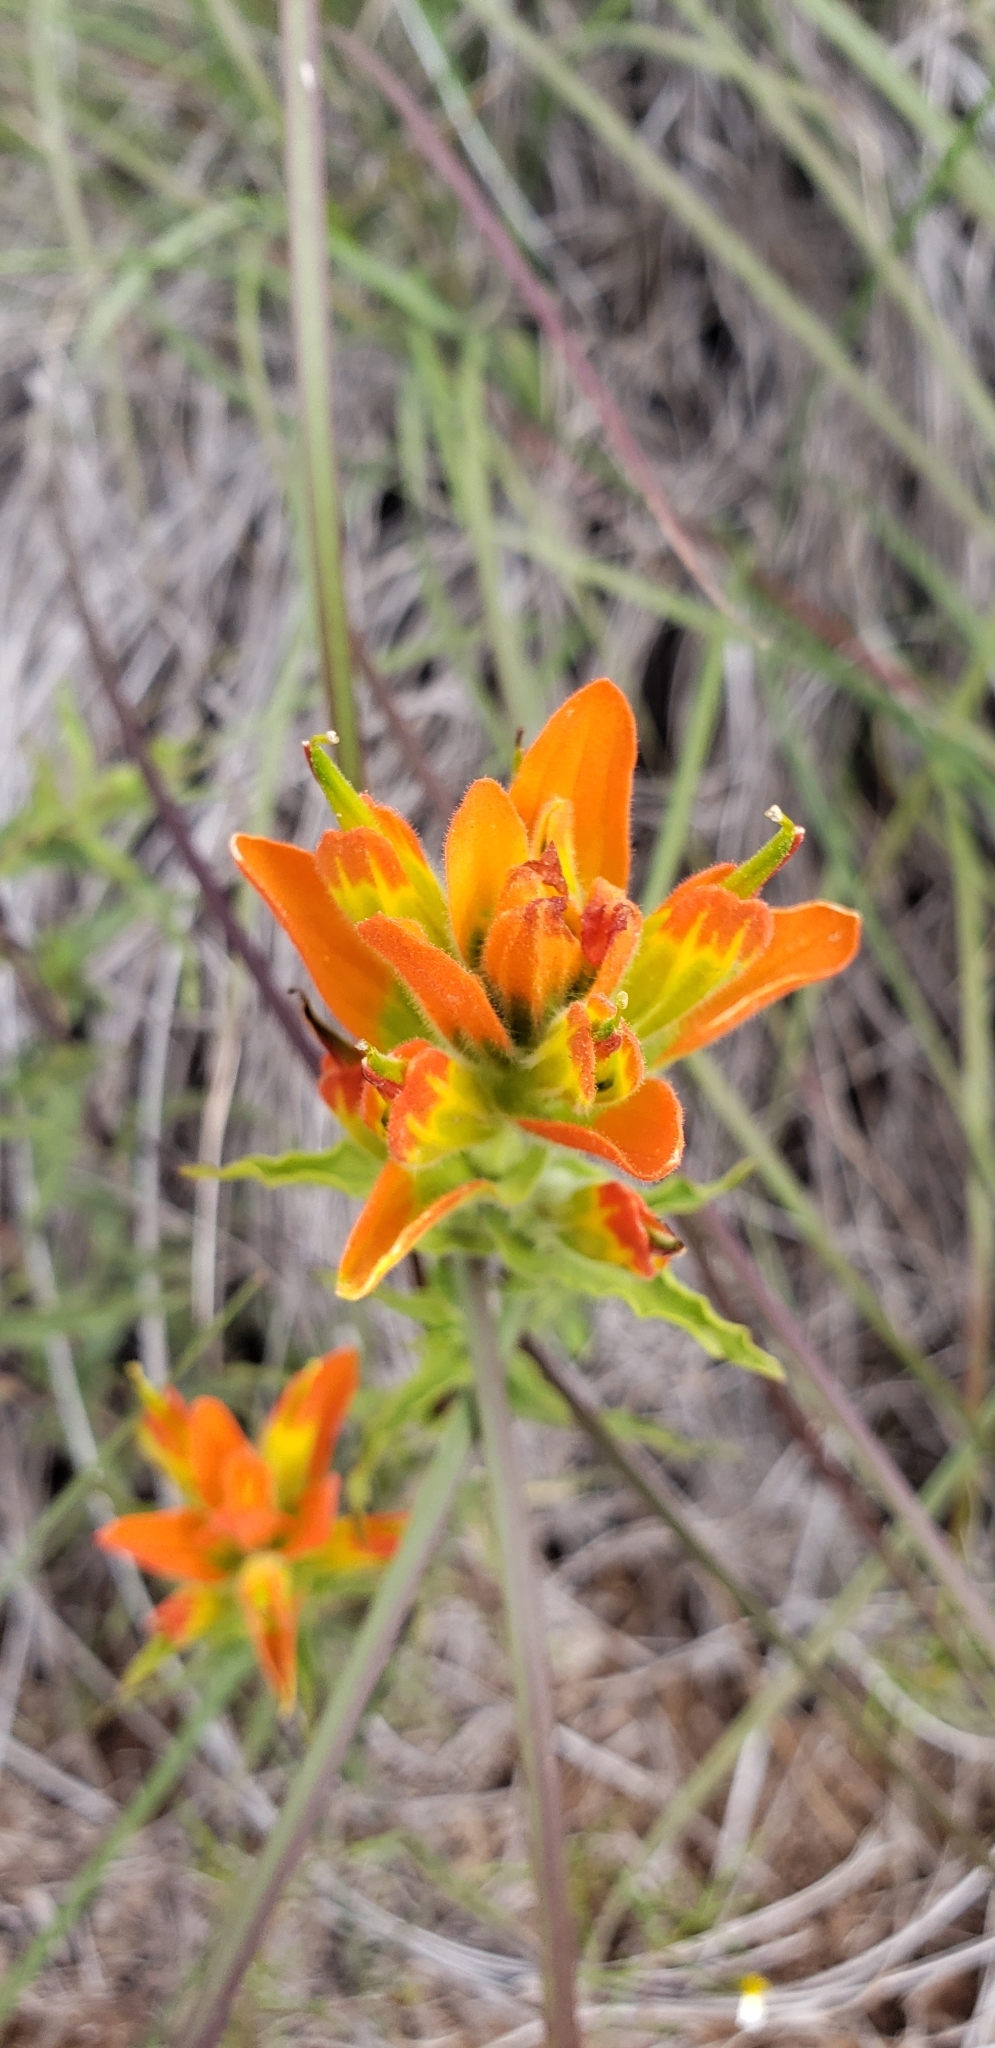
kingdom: Plantae
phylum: Tracheophyta
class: Magnoliopsida
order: Lamiales
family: Orobanchaceae
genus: Castilleja
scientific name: Castilleja scorzonerifolia
